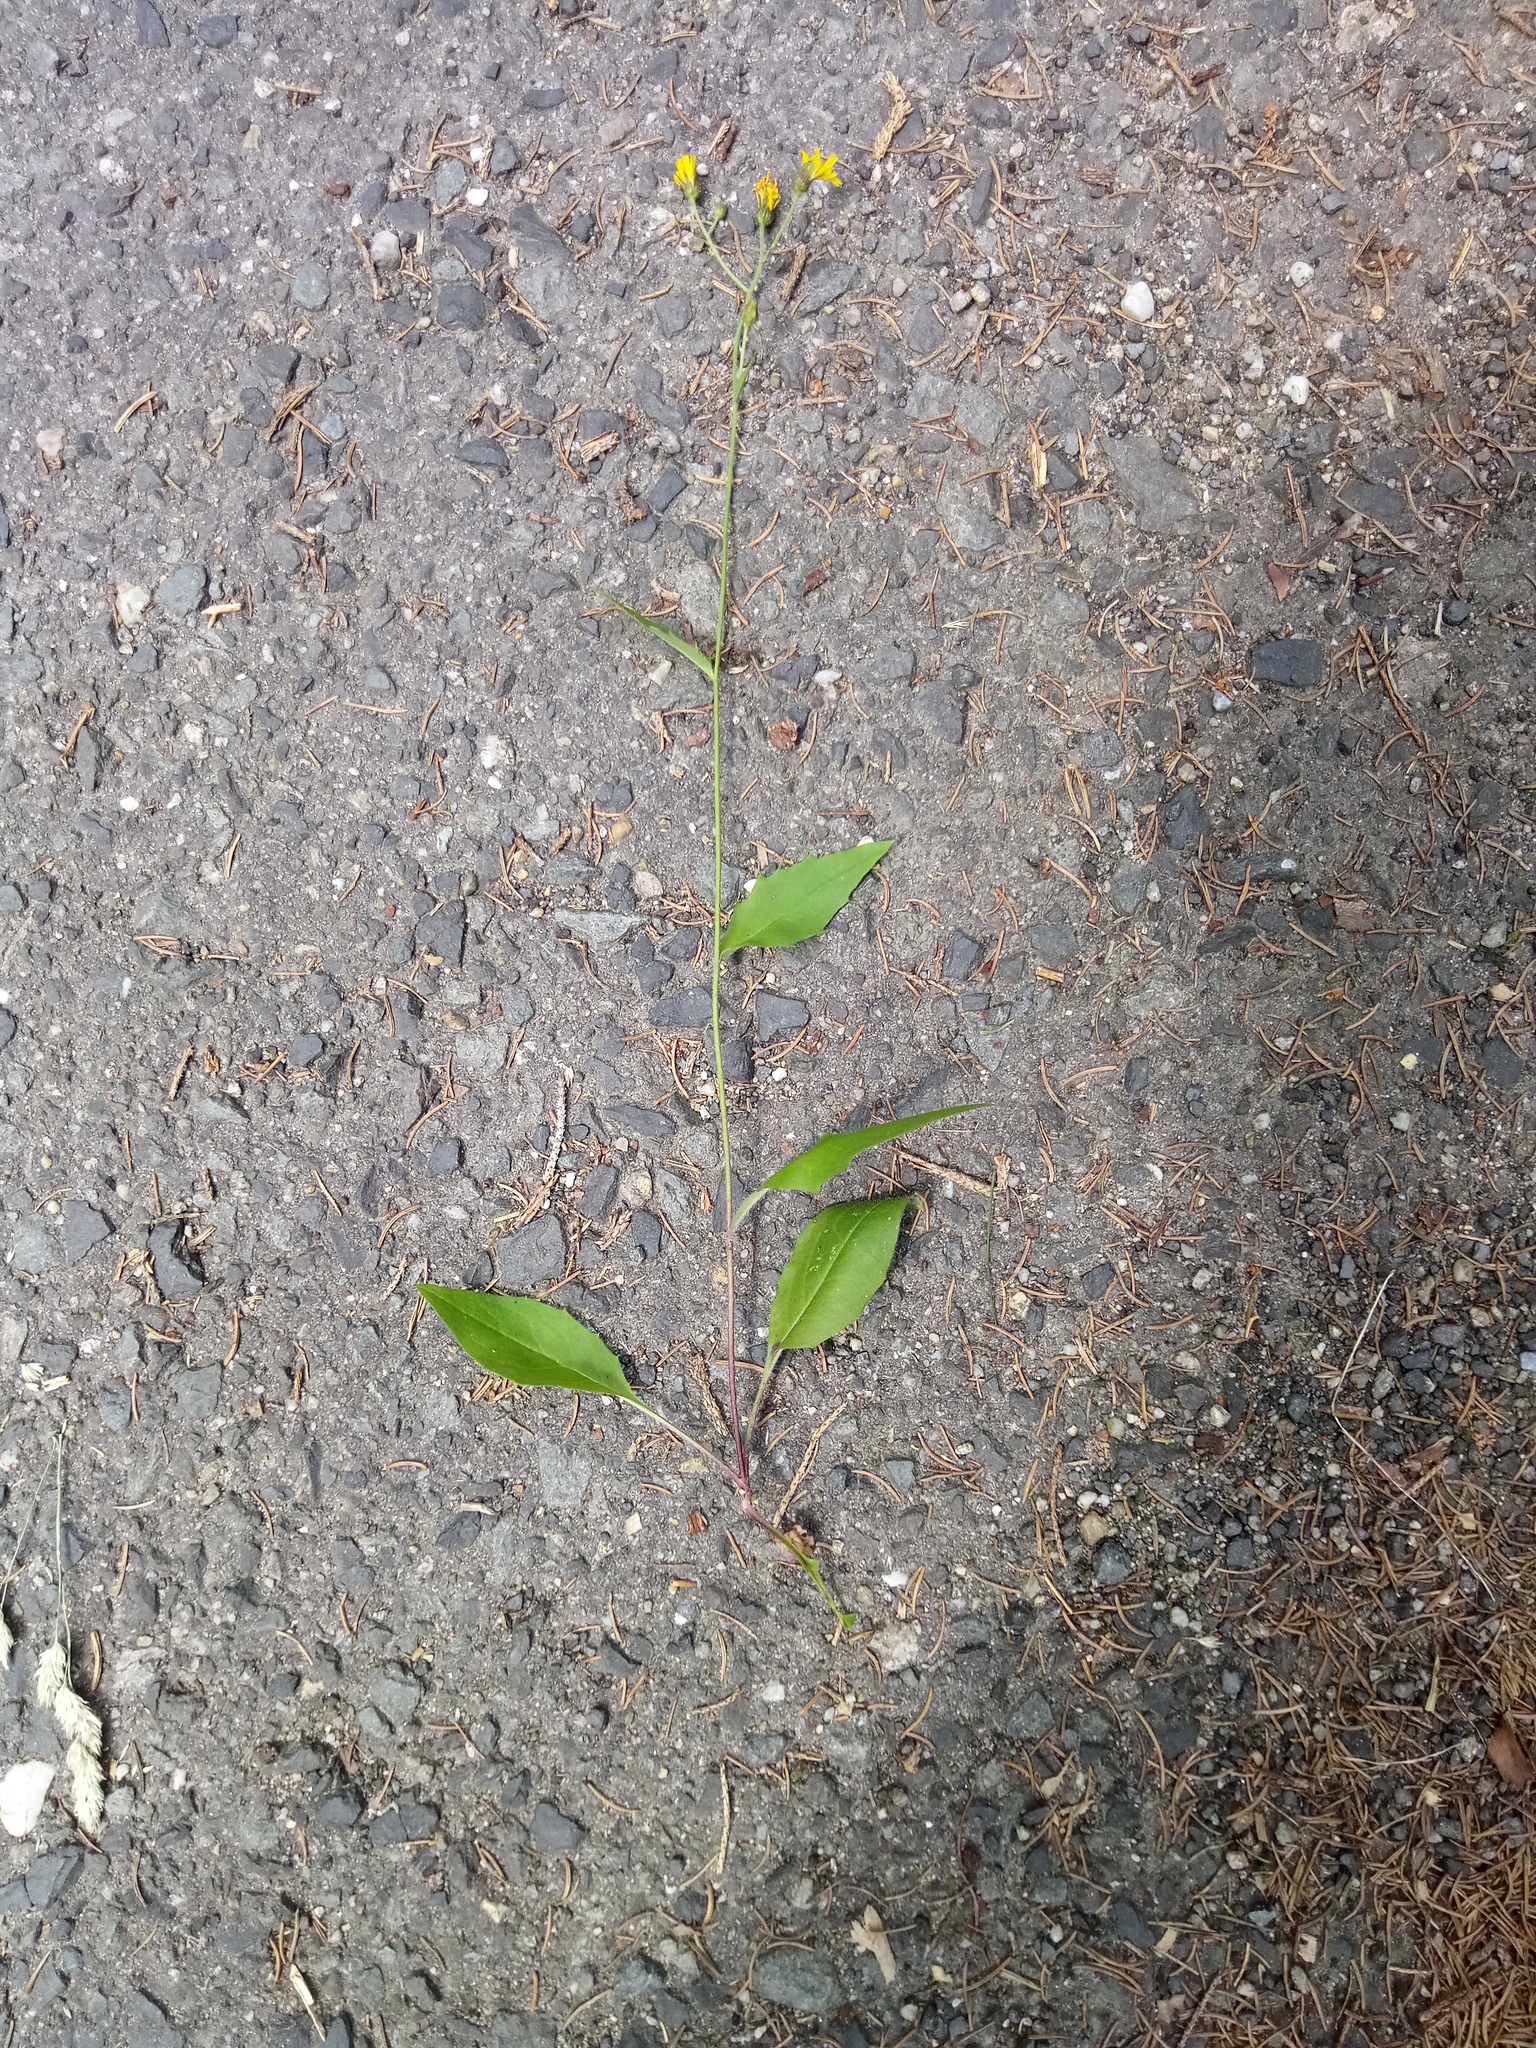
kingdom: Plantae
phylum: Tracheophyta
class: Magnoliopsida
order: Asterales
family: Asteraceae
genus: Hieracium
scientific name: Hieracium lachenalii
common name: Common hawkweed
